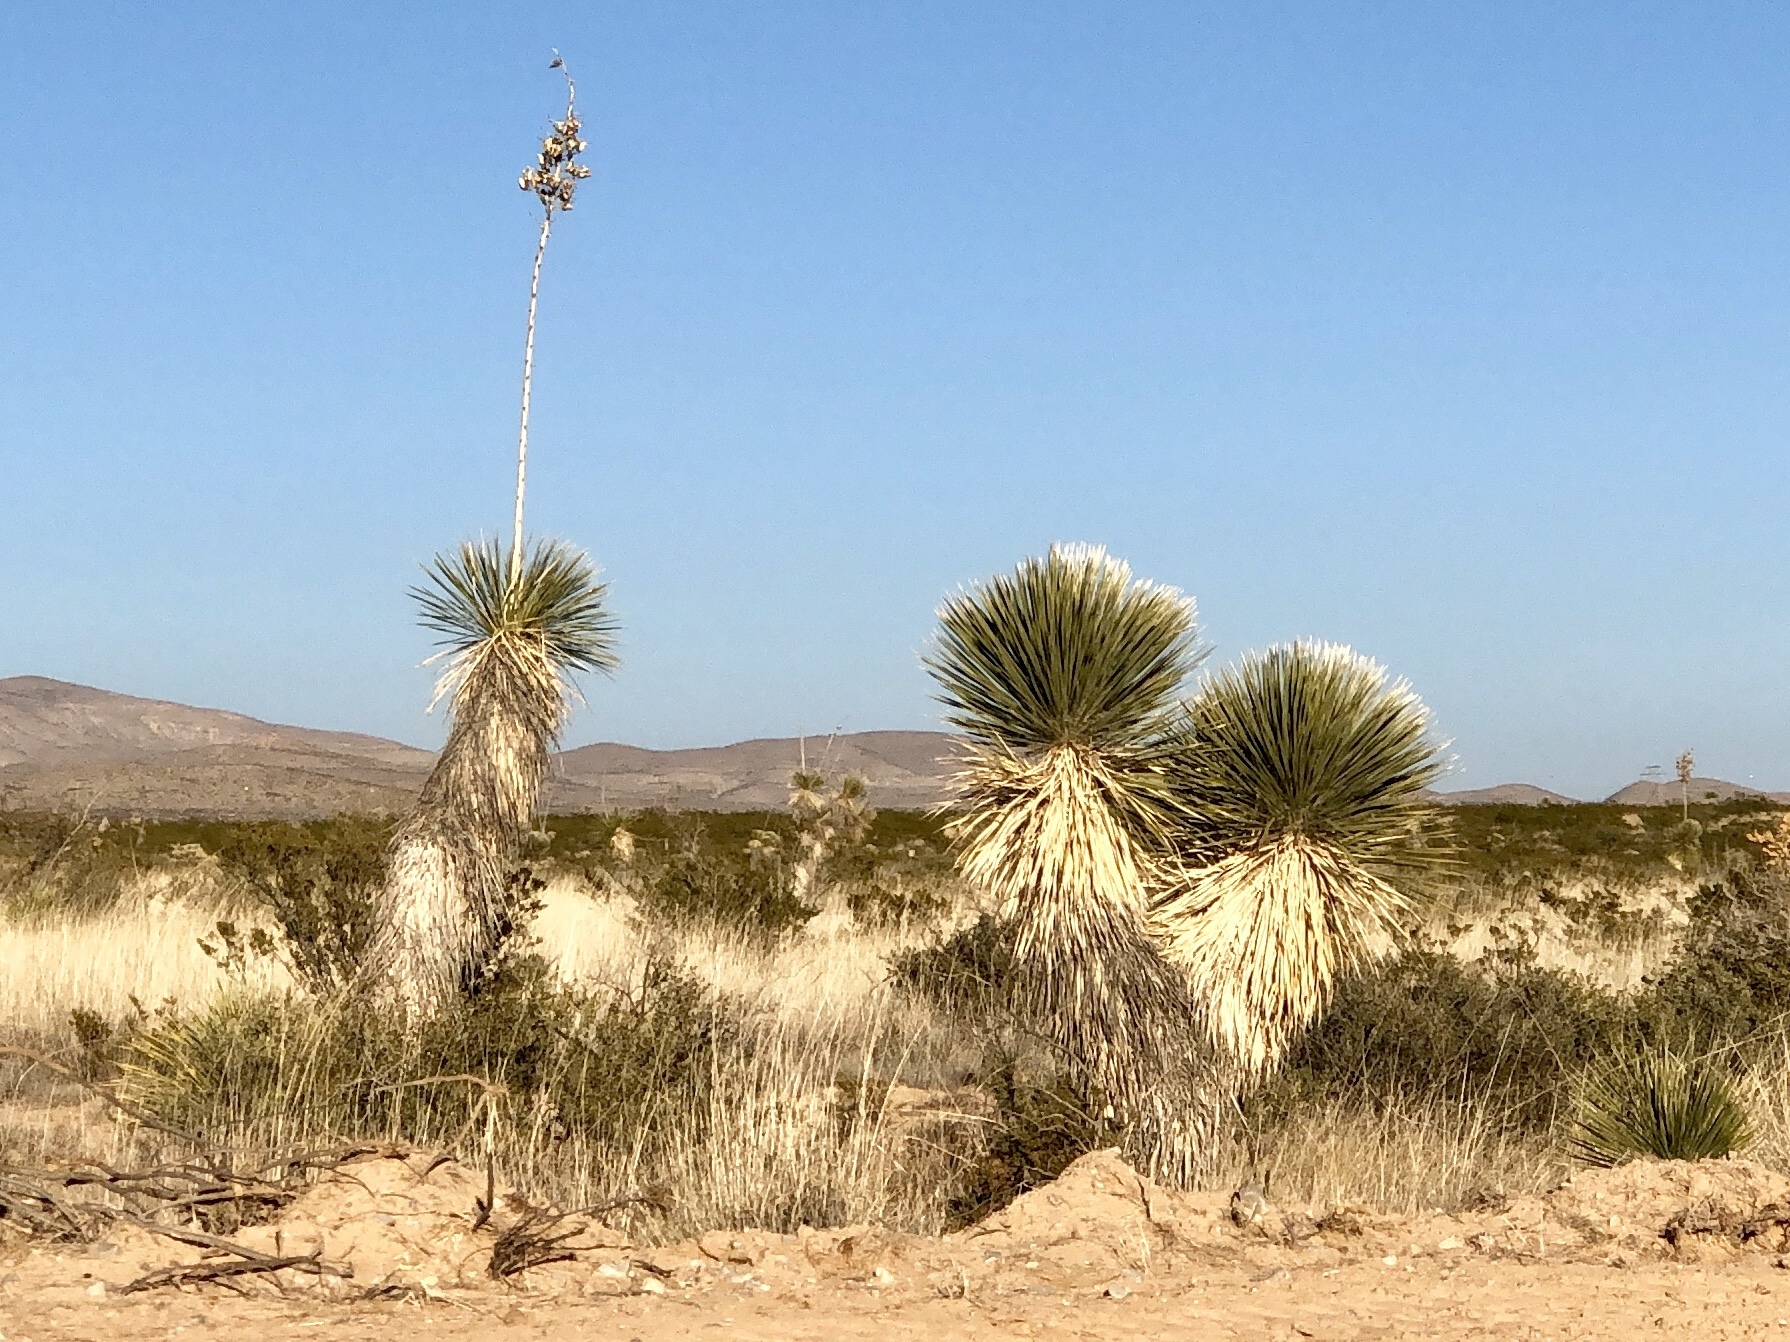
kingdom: Plantae
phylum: Tracheophyta
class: Liliopsida
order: Asparagales
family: Asparagaceae
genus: Yucca
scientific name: Yucca elata
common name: Palmella
